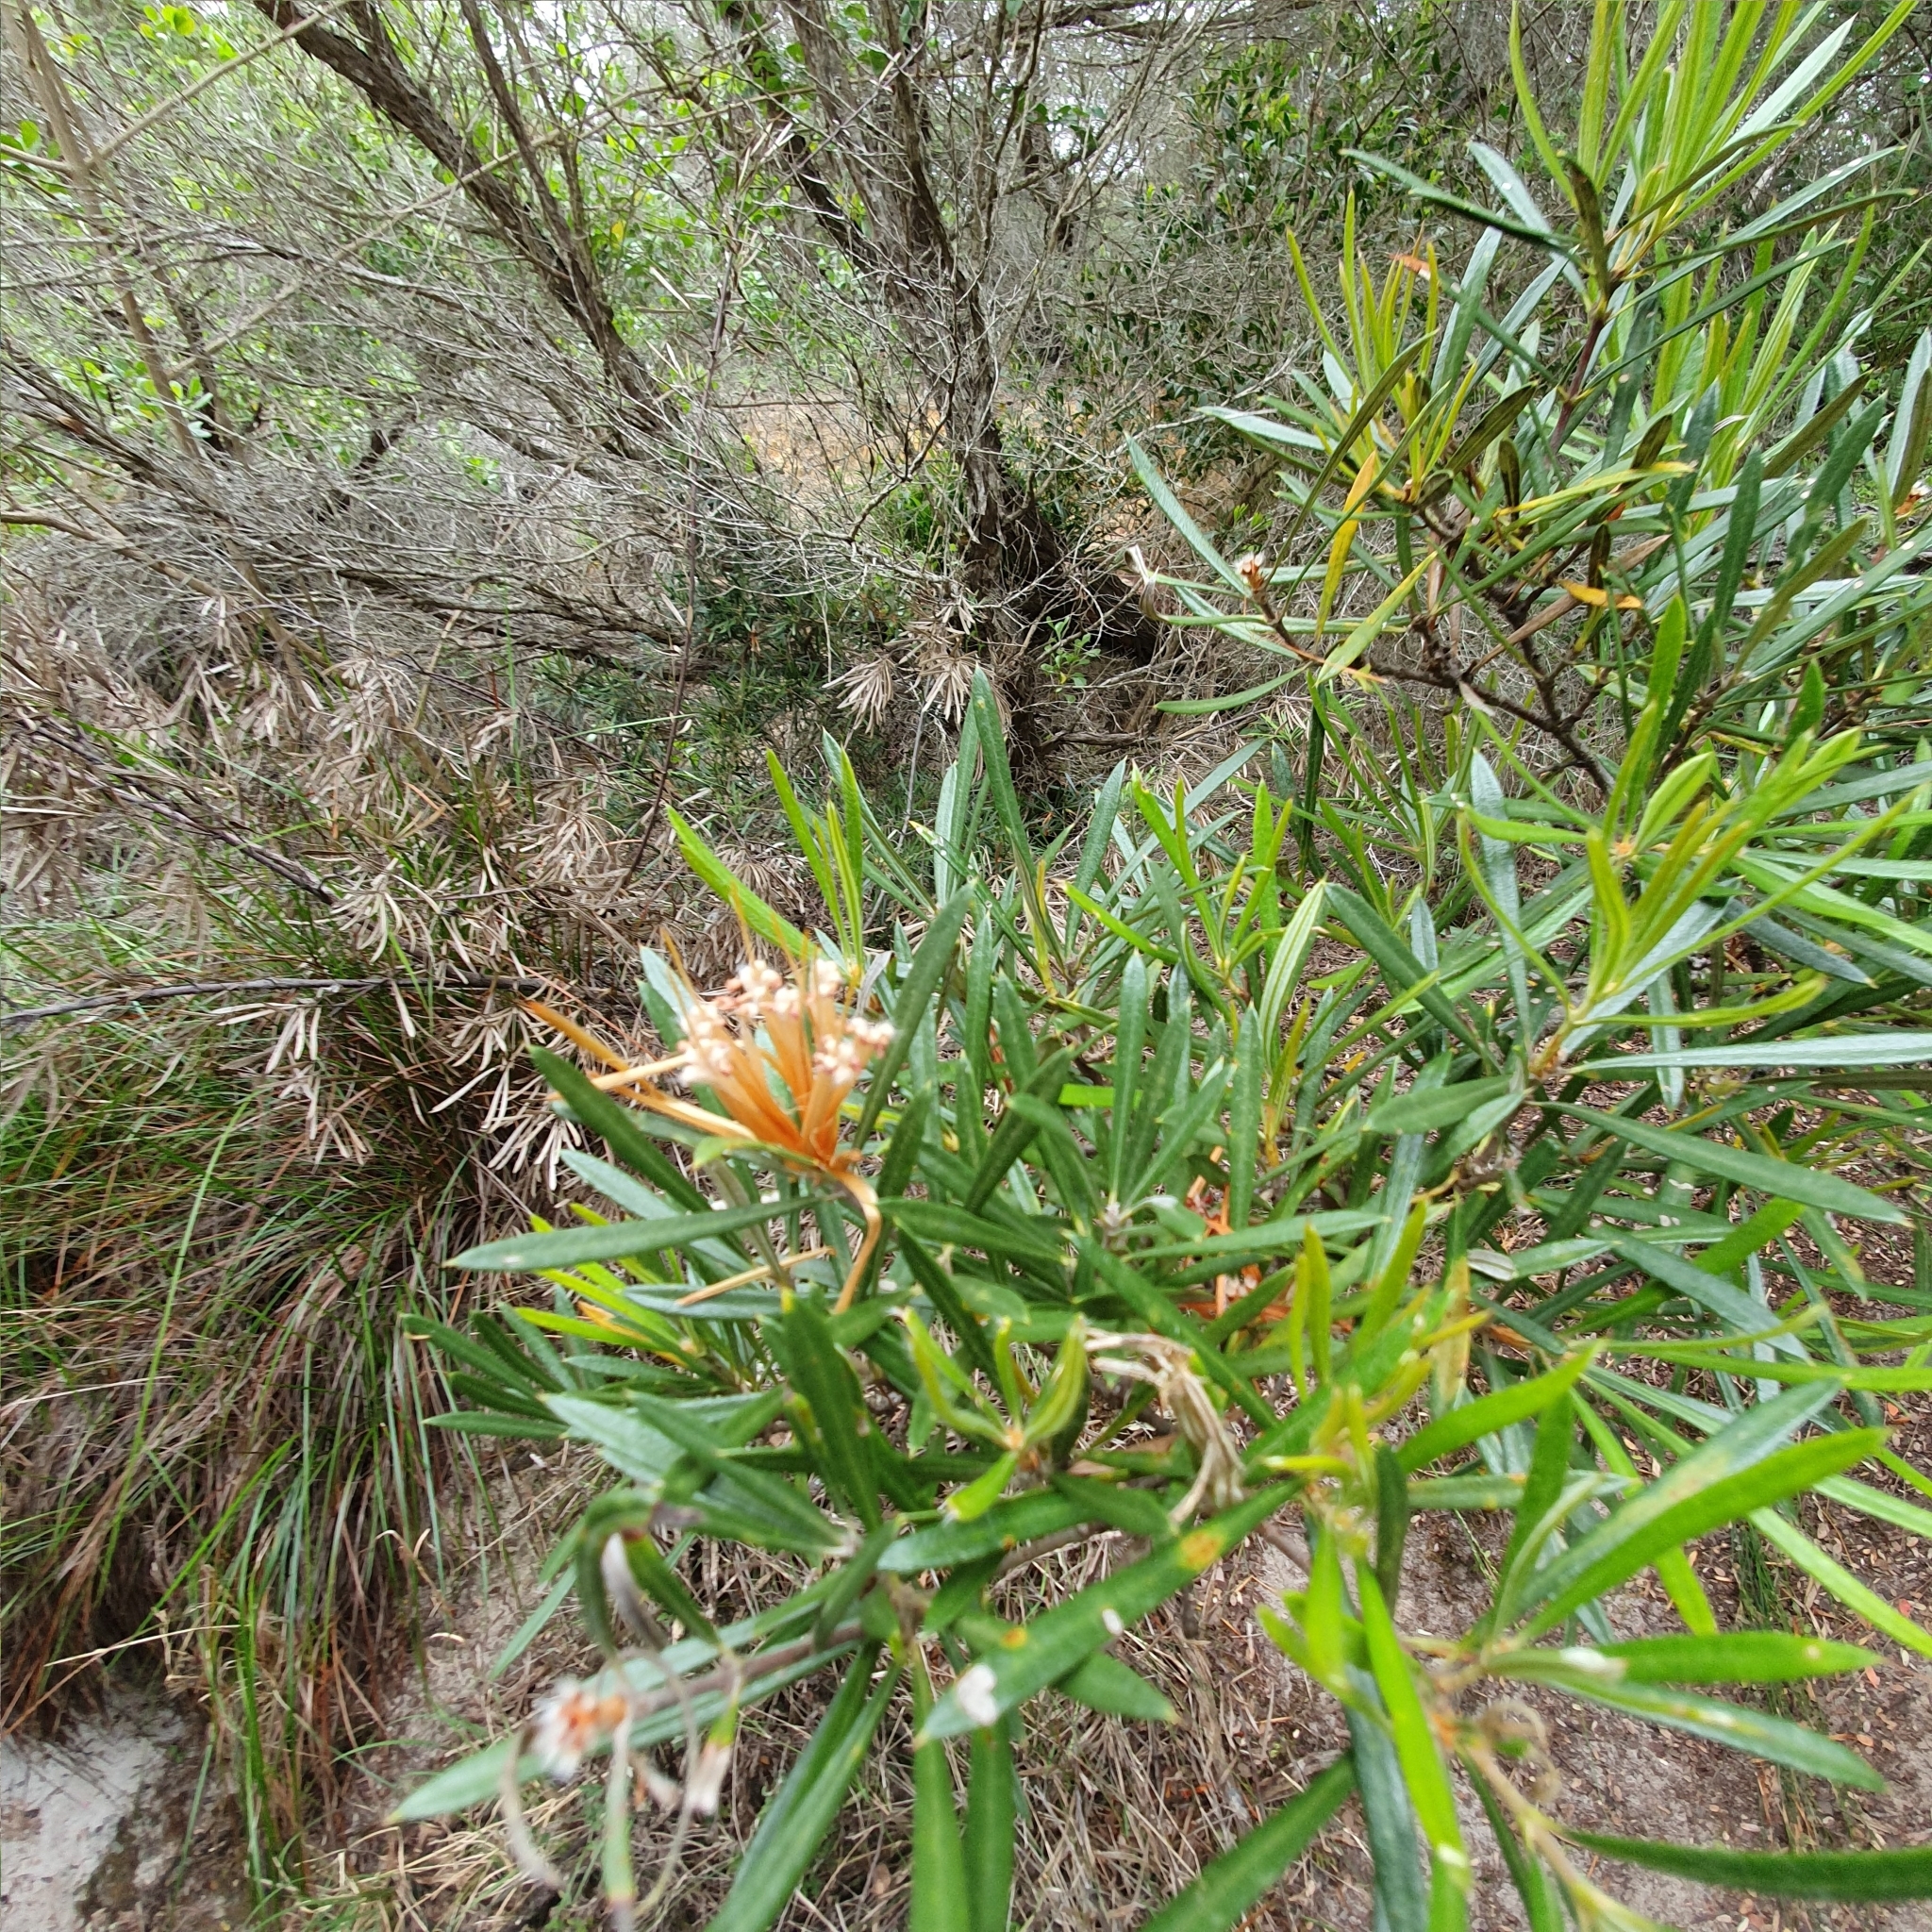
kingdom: Plantae
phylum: Tracheophyta
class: Magnoliopsida
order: Proteales
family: Proteaceae
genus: Lambertia
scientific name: Lambertia formosa
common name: Mountain-devil
